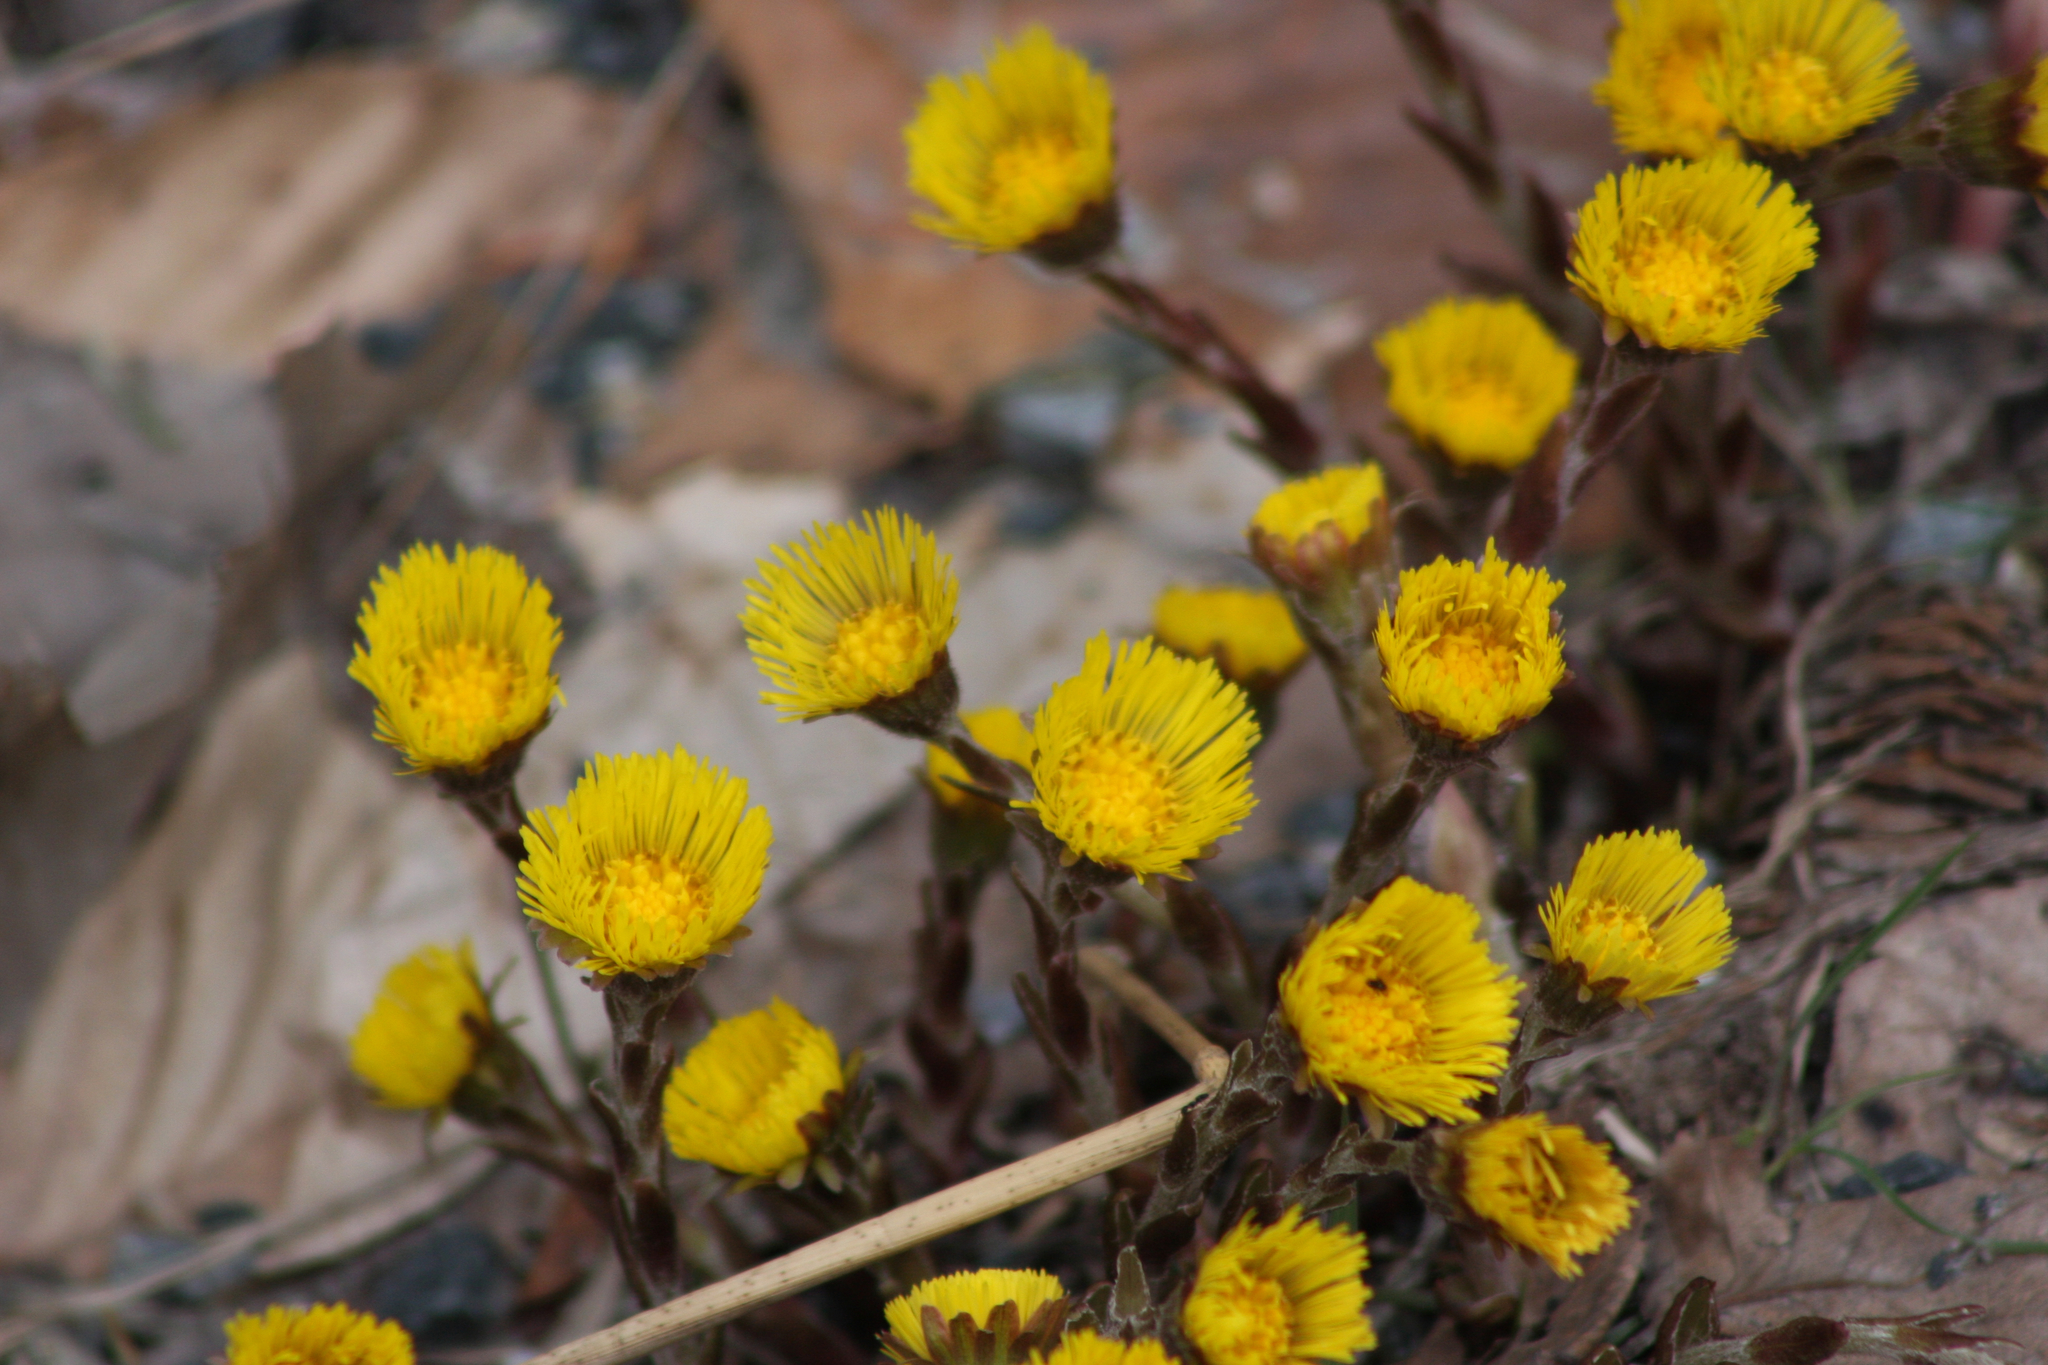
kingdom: Plantae
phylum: Tracheophyta
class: Magnoliopsida
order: Asterales
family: Asteraceae
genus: Tussilago
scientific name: Tussilago farfara
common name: Coltsfoot
